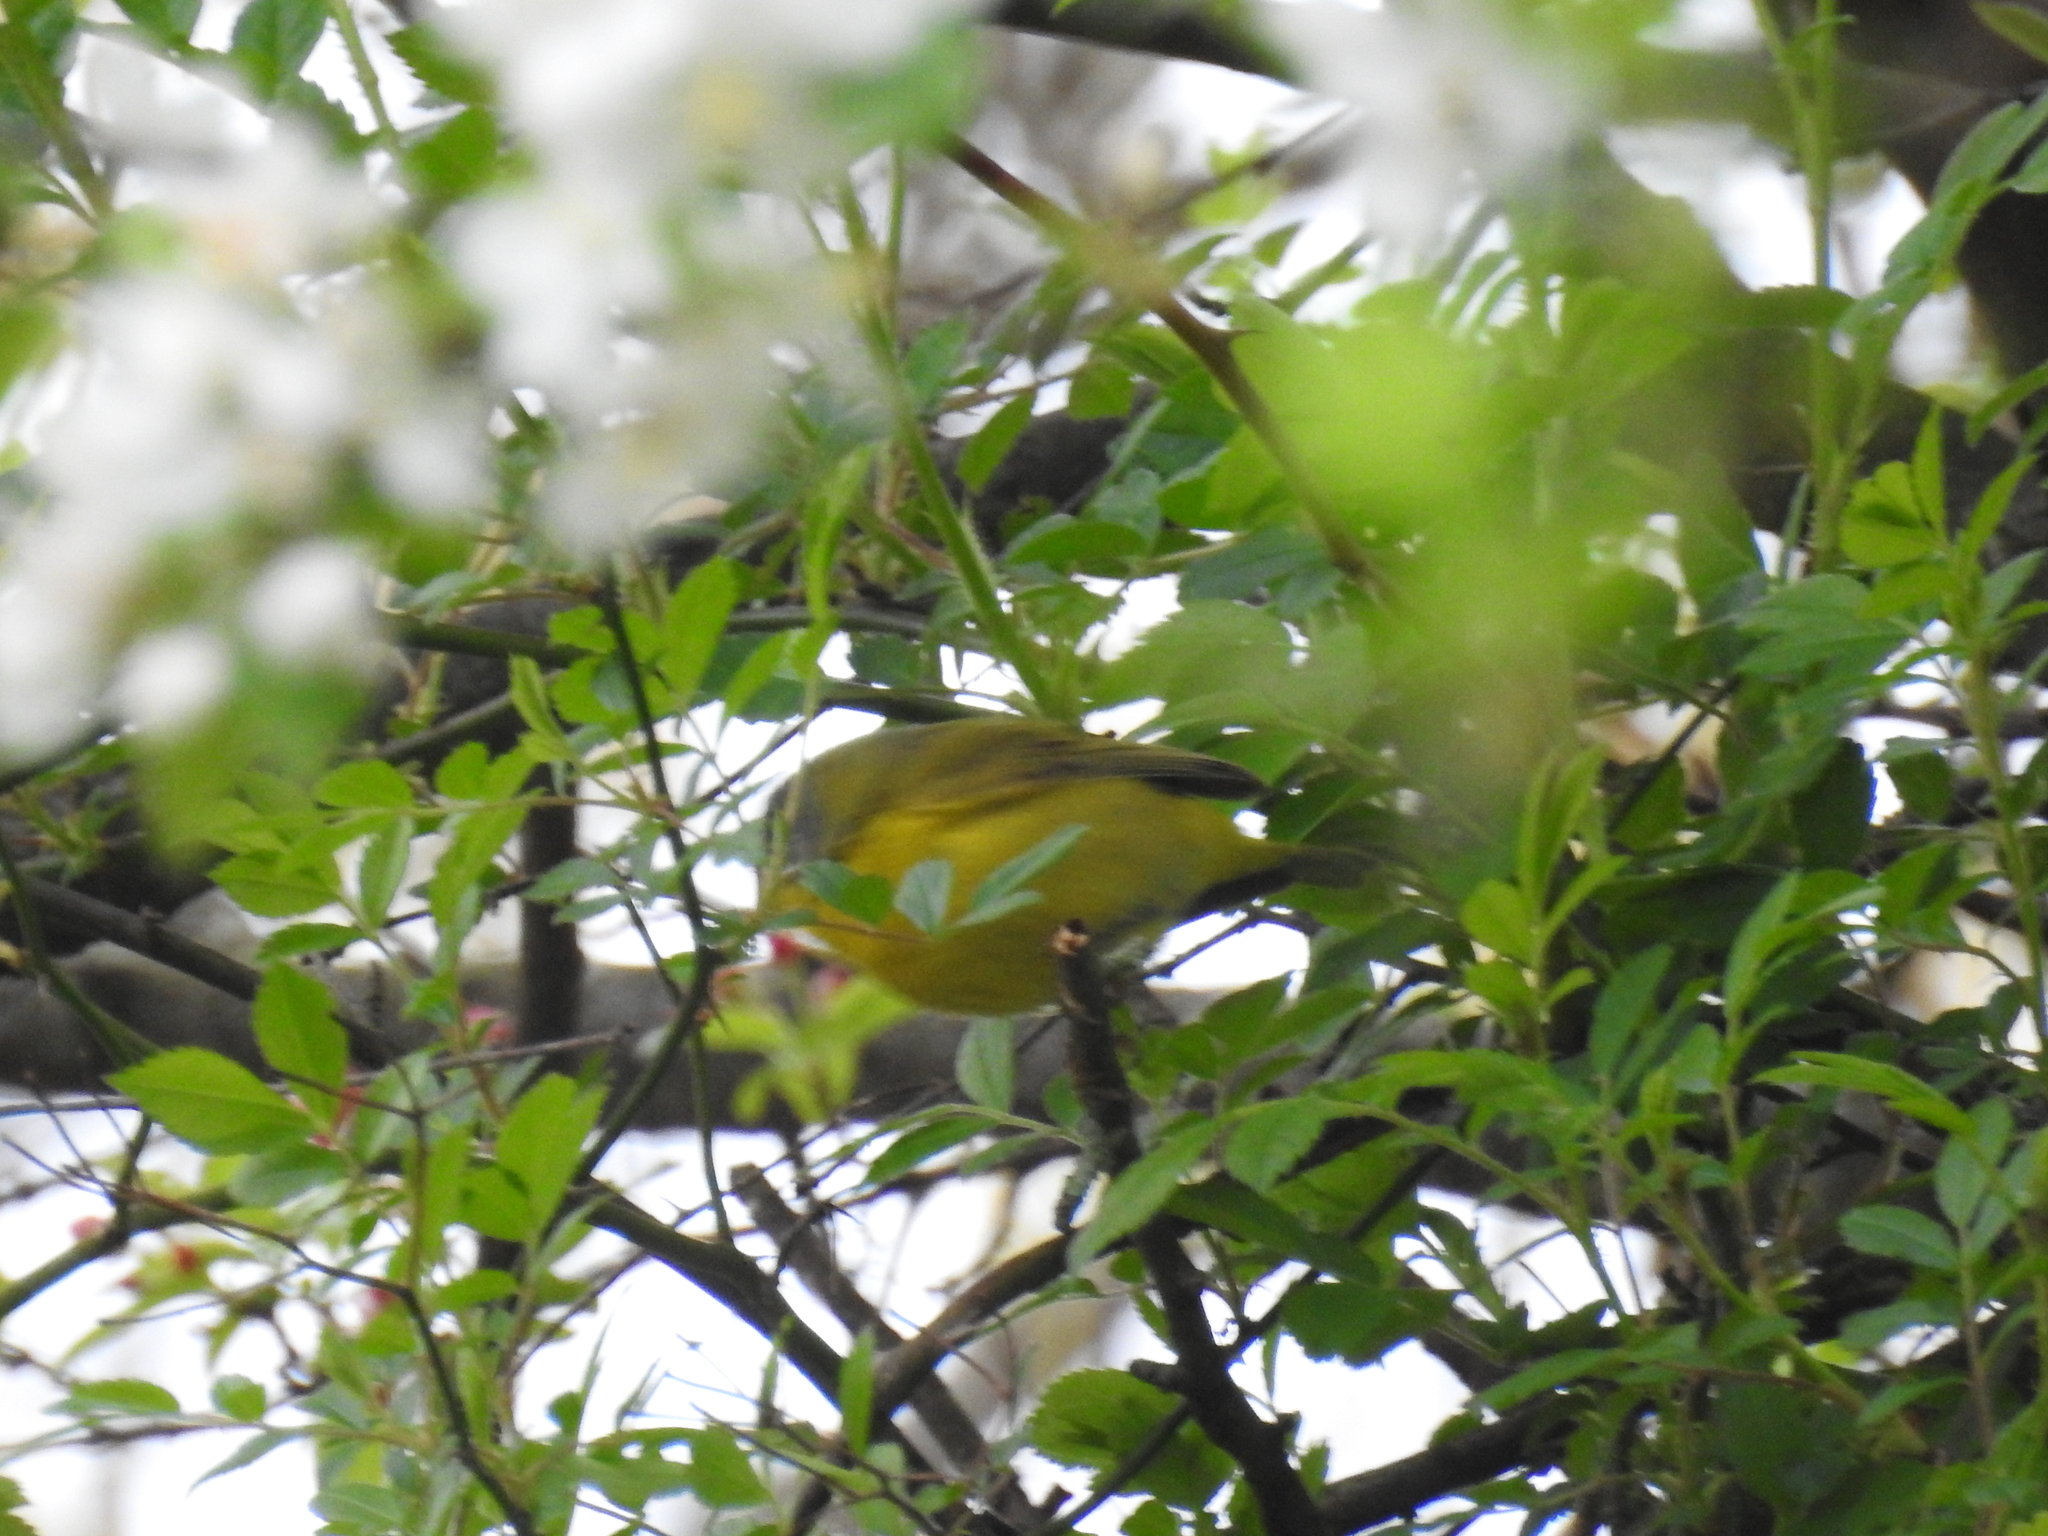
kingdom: Animalia
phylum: Chordata
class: Aves
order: Passeriformes
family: Parulidae
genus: Leiothlypis
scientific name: Leiothlypis ruficapilla
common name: Nashville warbler
